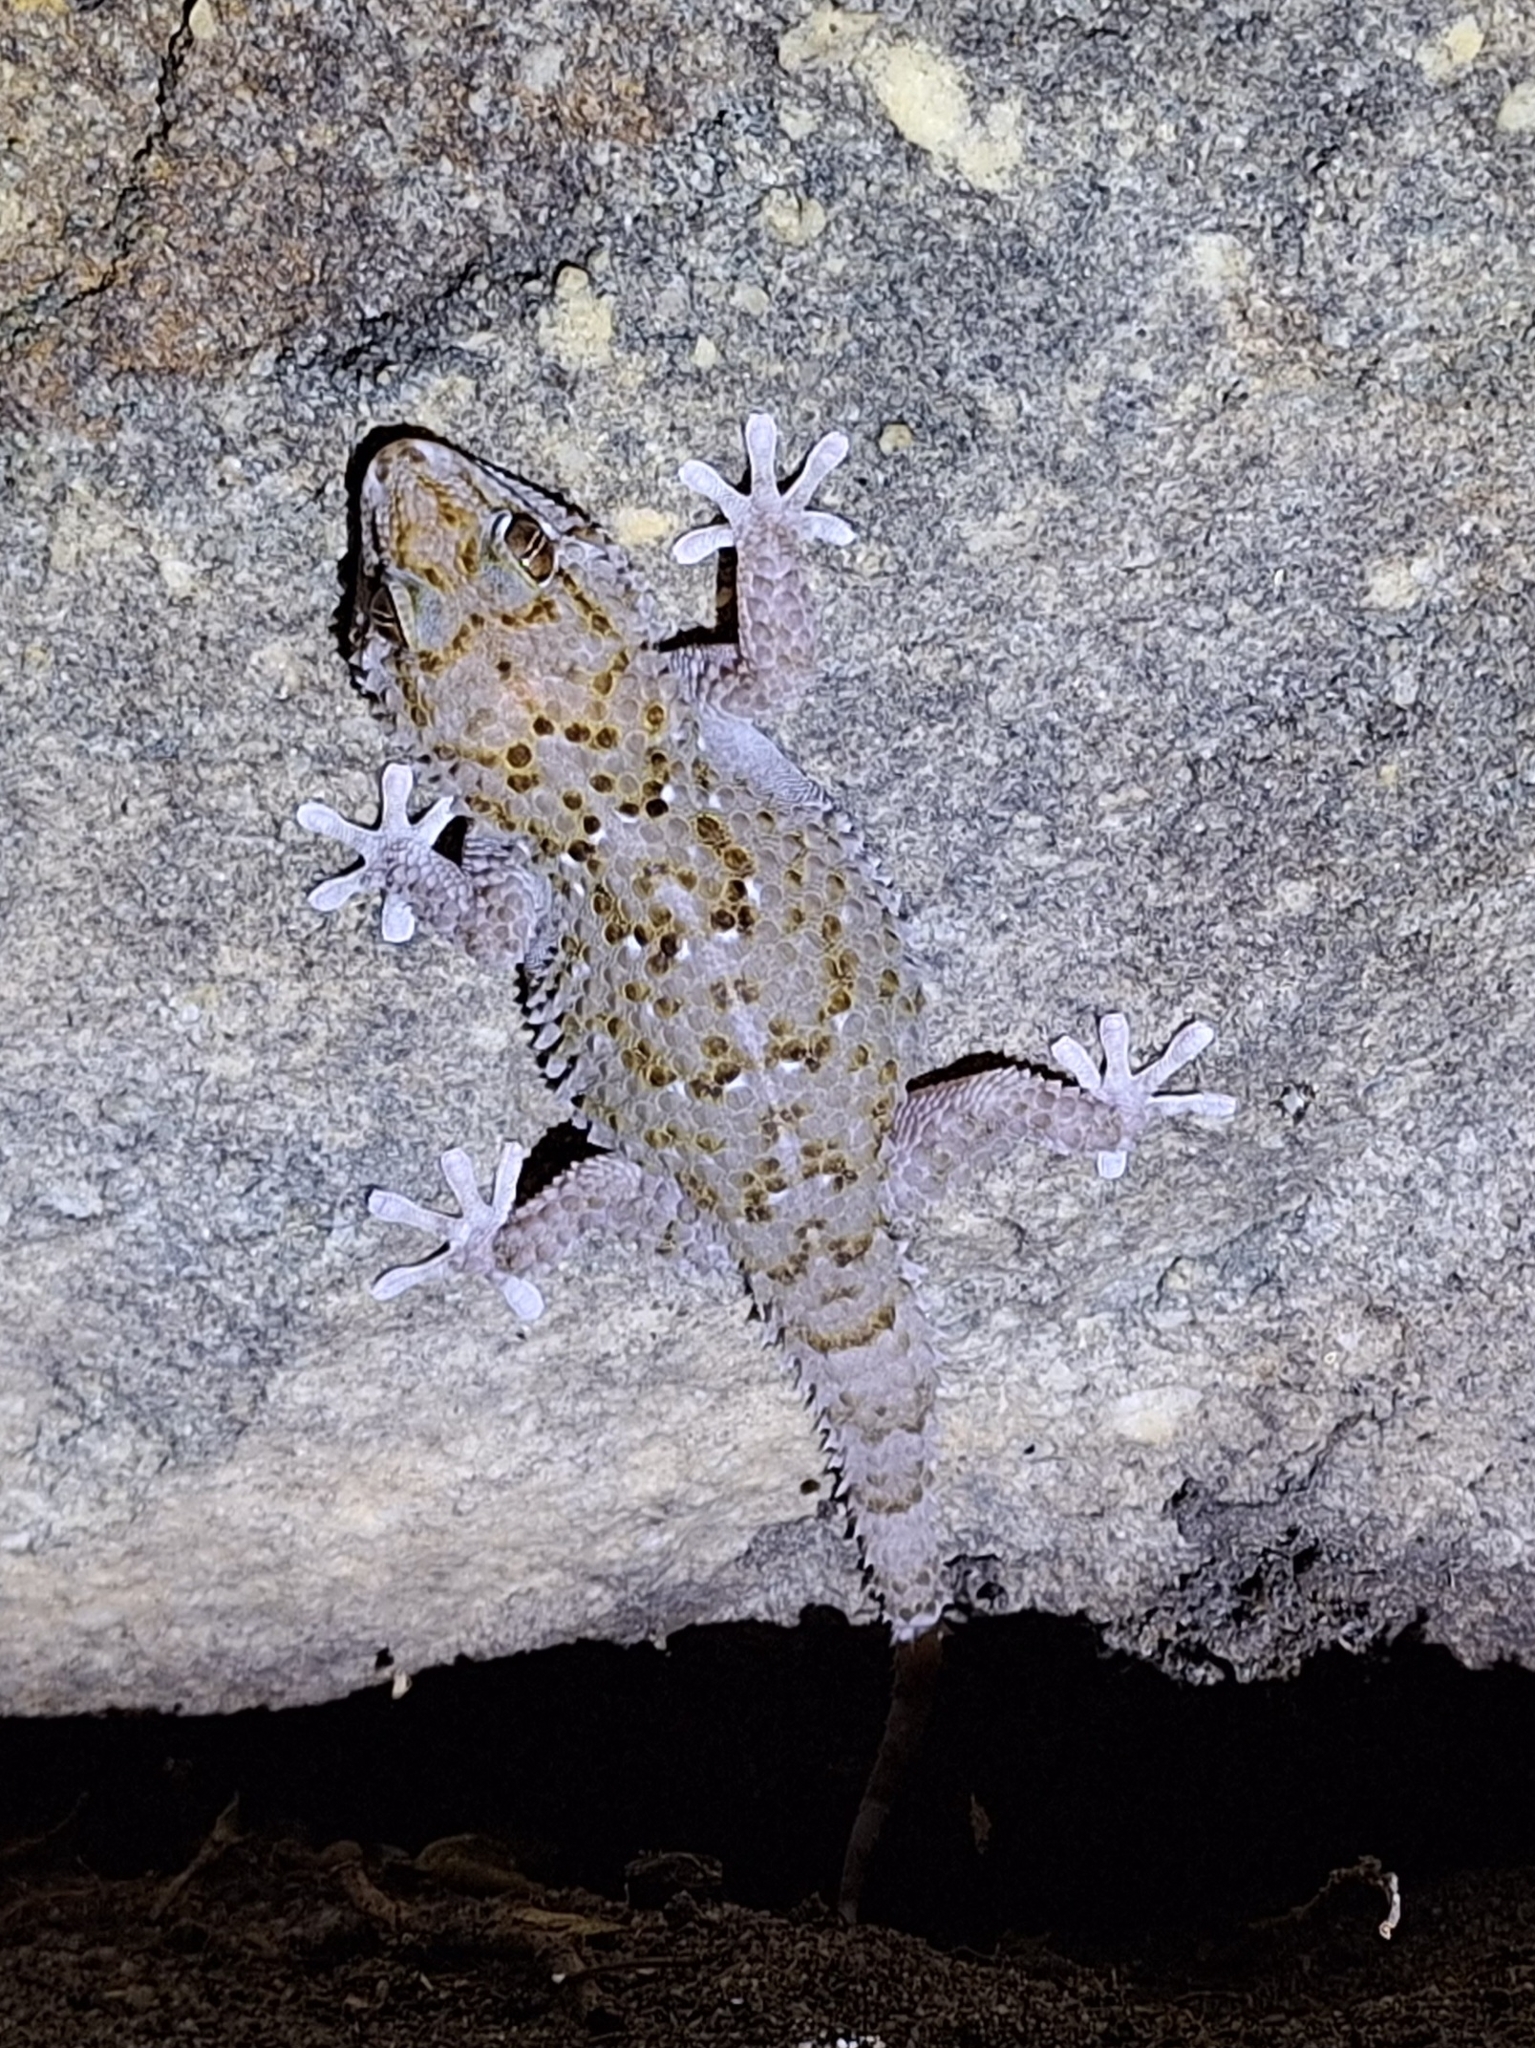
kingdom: Animalia
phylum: Chordata
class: Squamata
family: Gekkonidae
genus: Chondrodactylus
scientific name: Chondrodactylus bibronii
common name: Bibron's gecko
